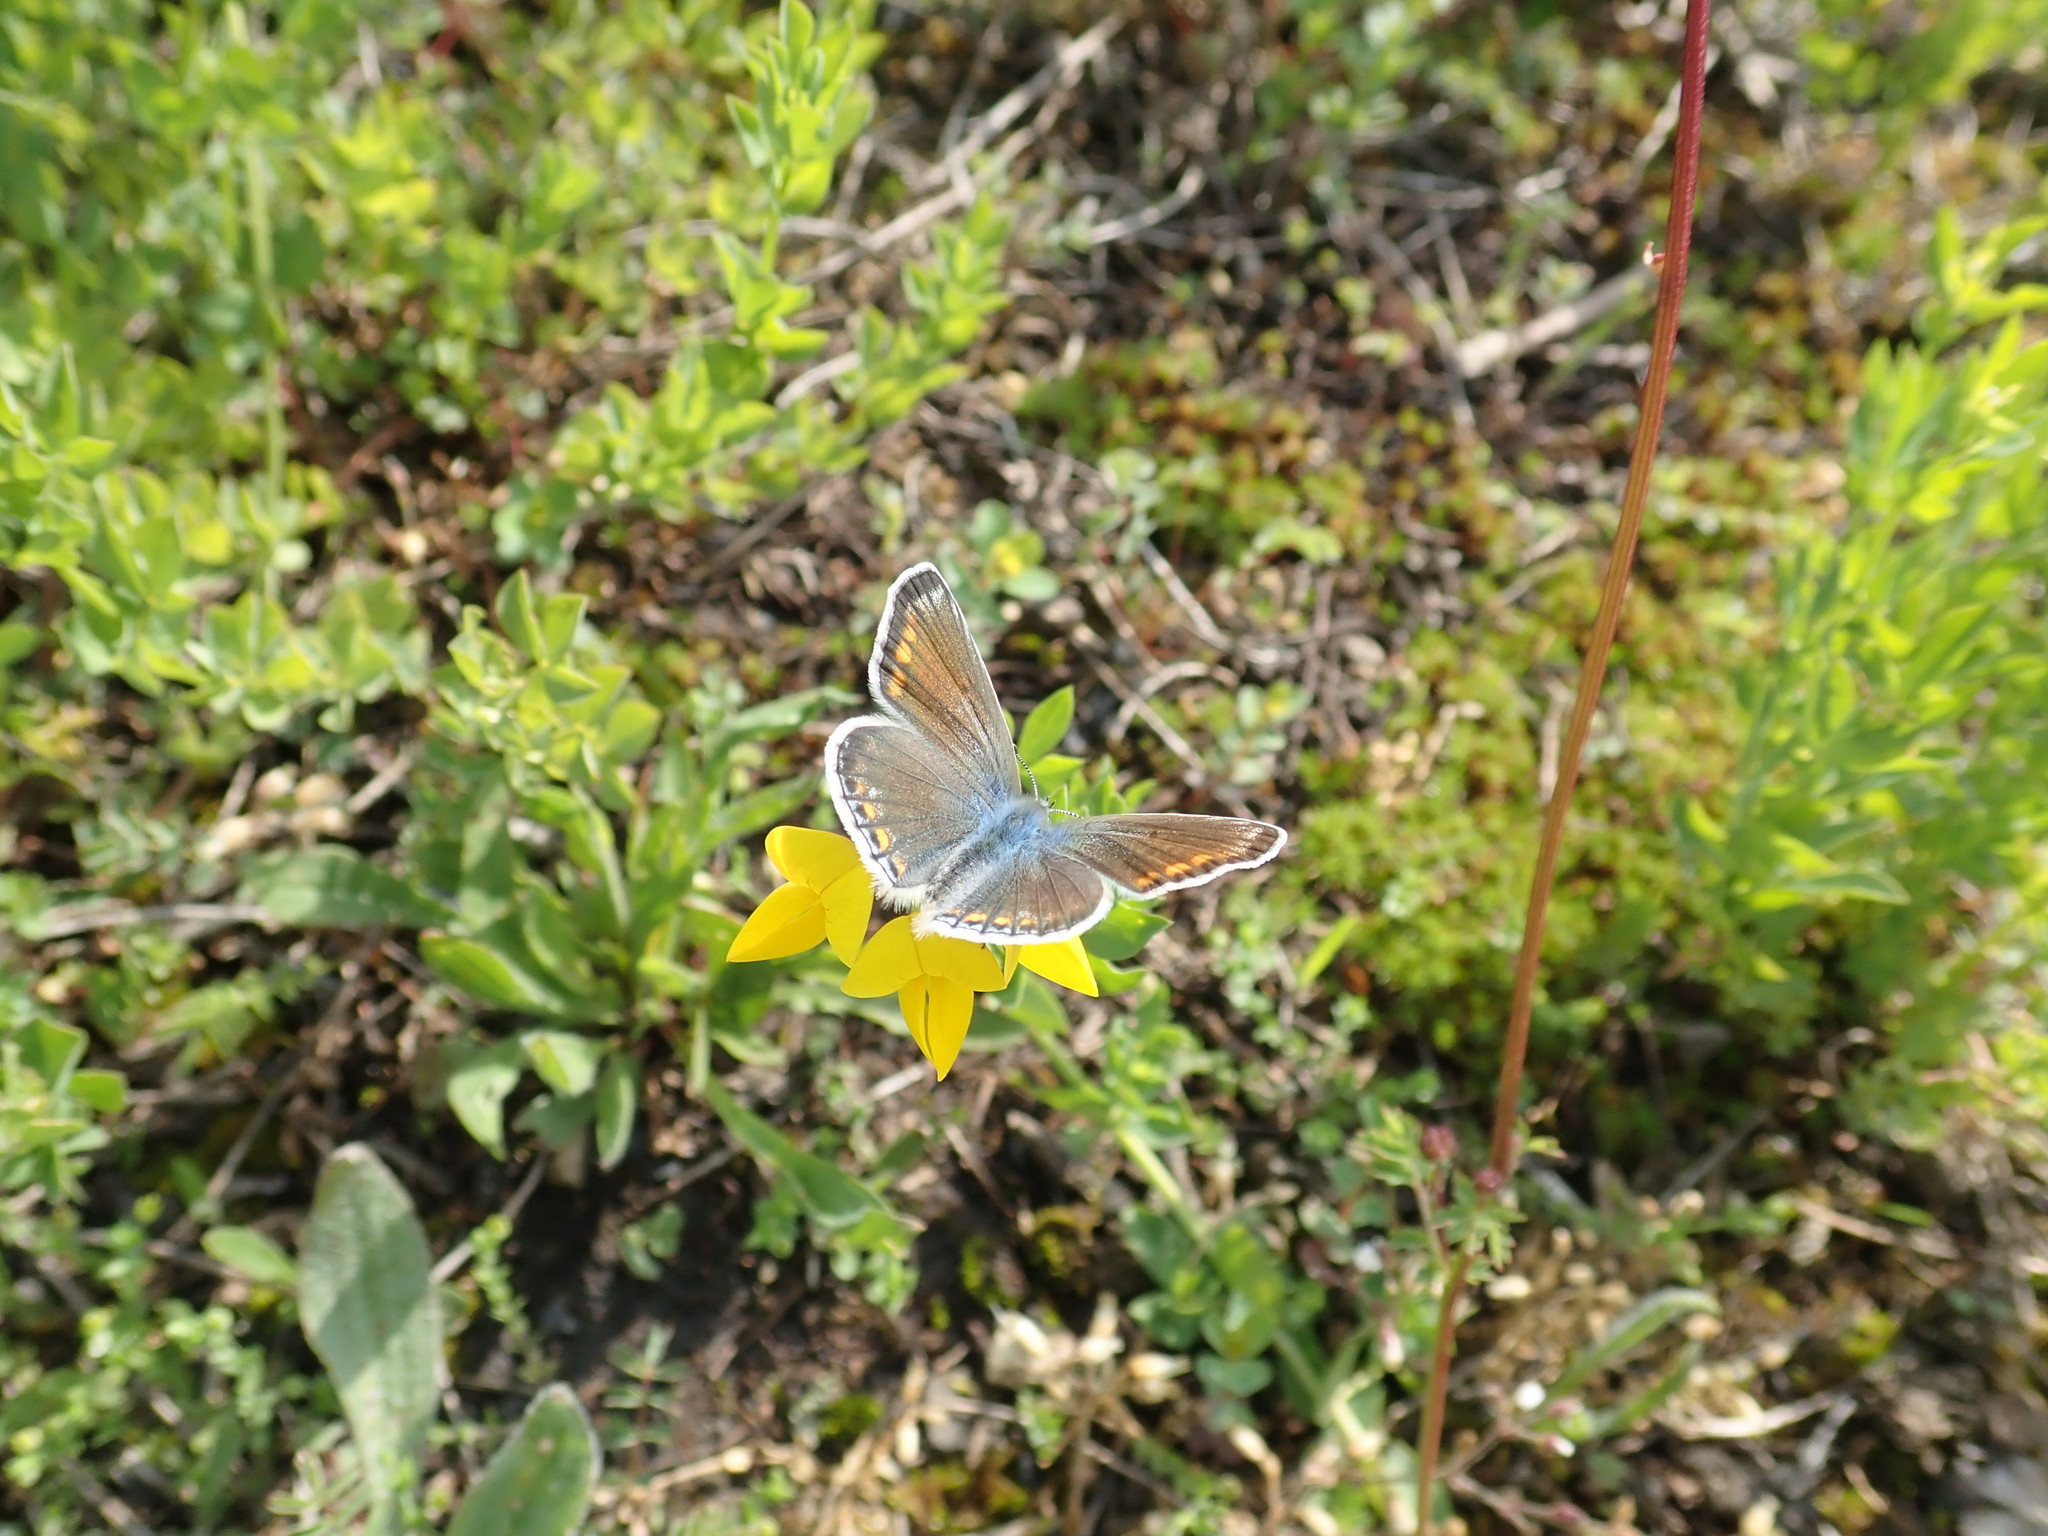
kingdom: Animalia
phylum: Arthropoda
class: Insecta
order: Lepidoptera
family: Lycaenidae
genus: Polyommatus
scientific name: Polyommatus icarus
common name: Common blue
